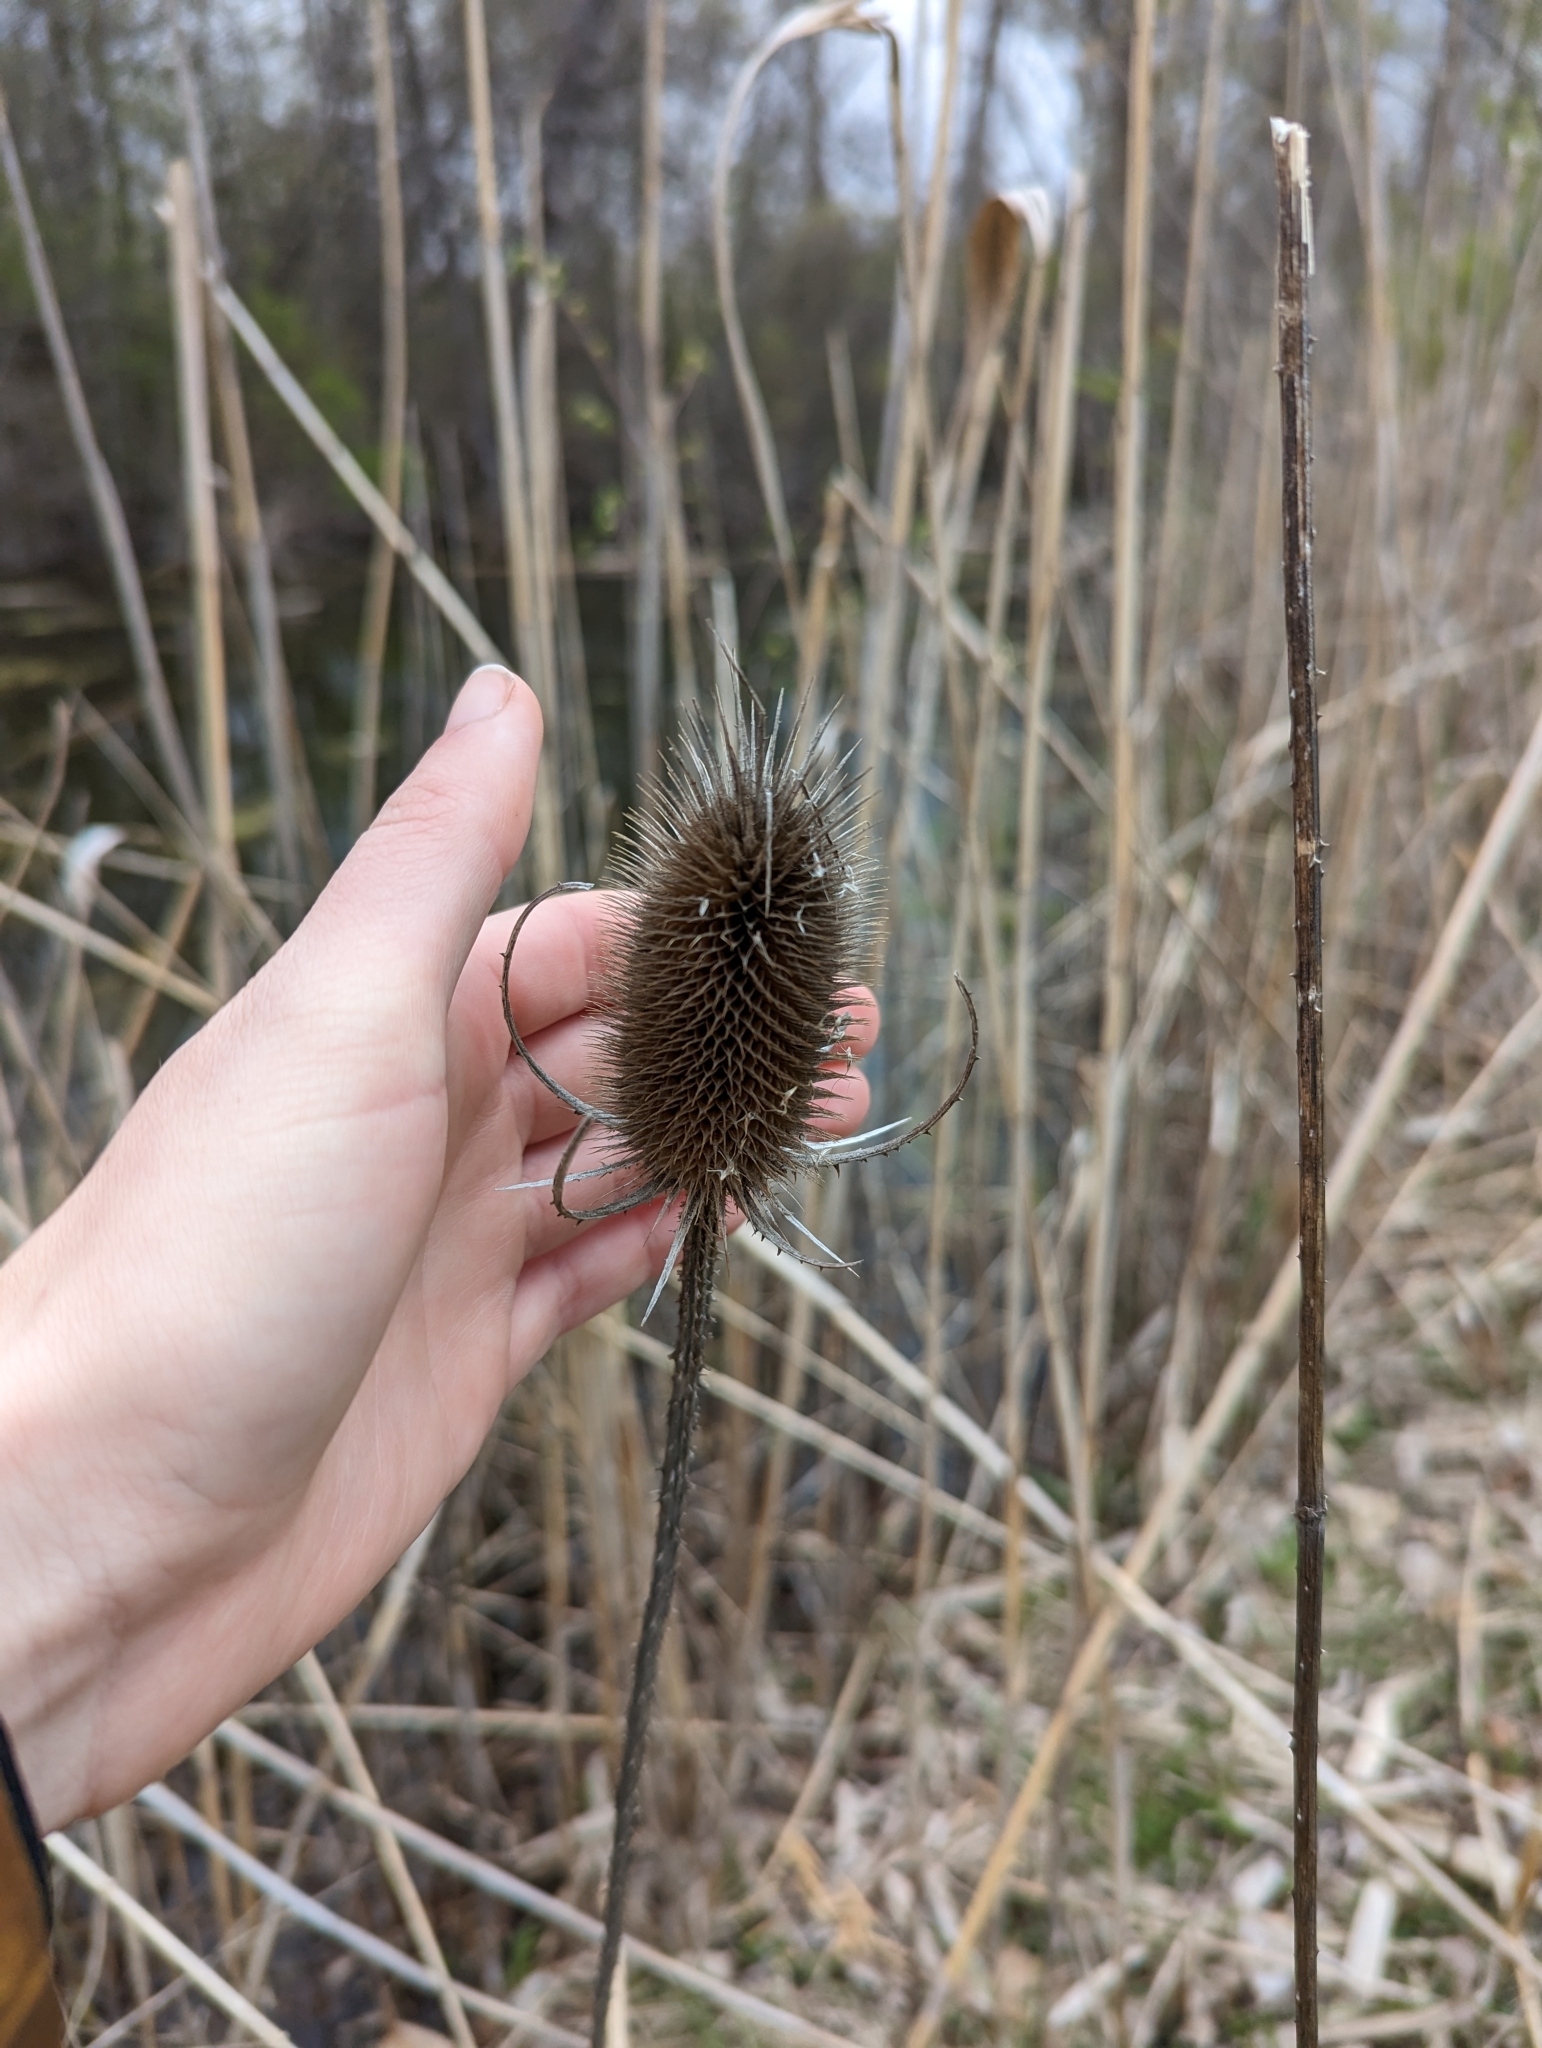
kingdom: Plantae
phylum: Tracheophyta
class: Magnoliopsida
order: Dipsacales
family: Caprifoliaceae
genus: Dipsacus
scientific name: Dipsacus fullonum
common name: Teasel
